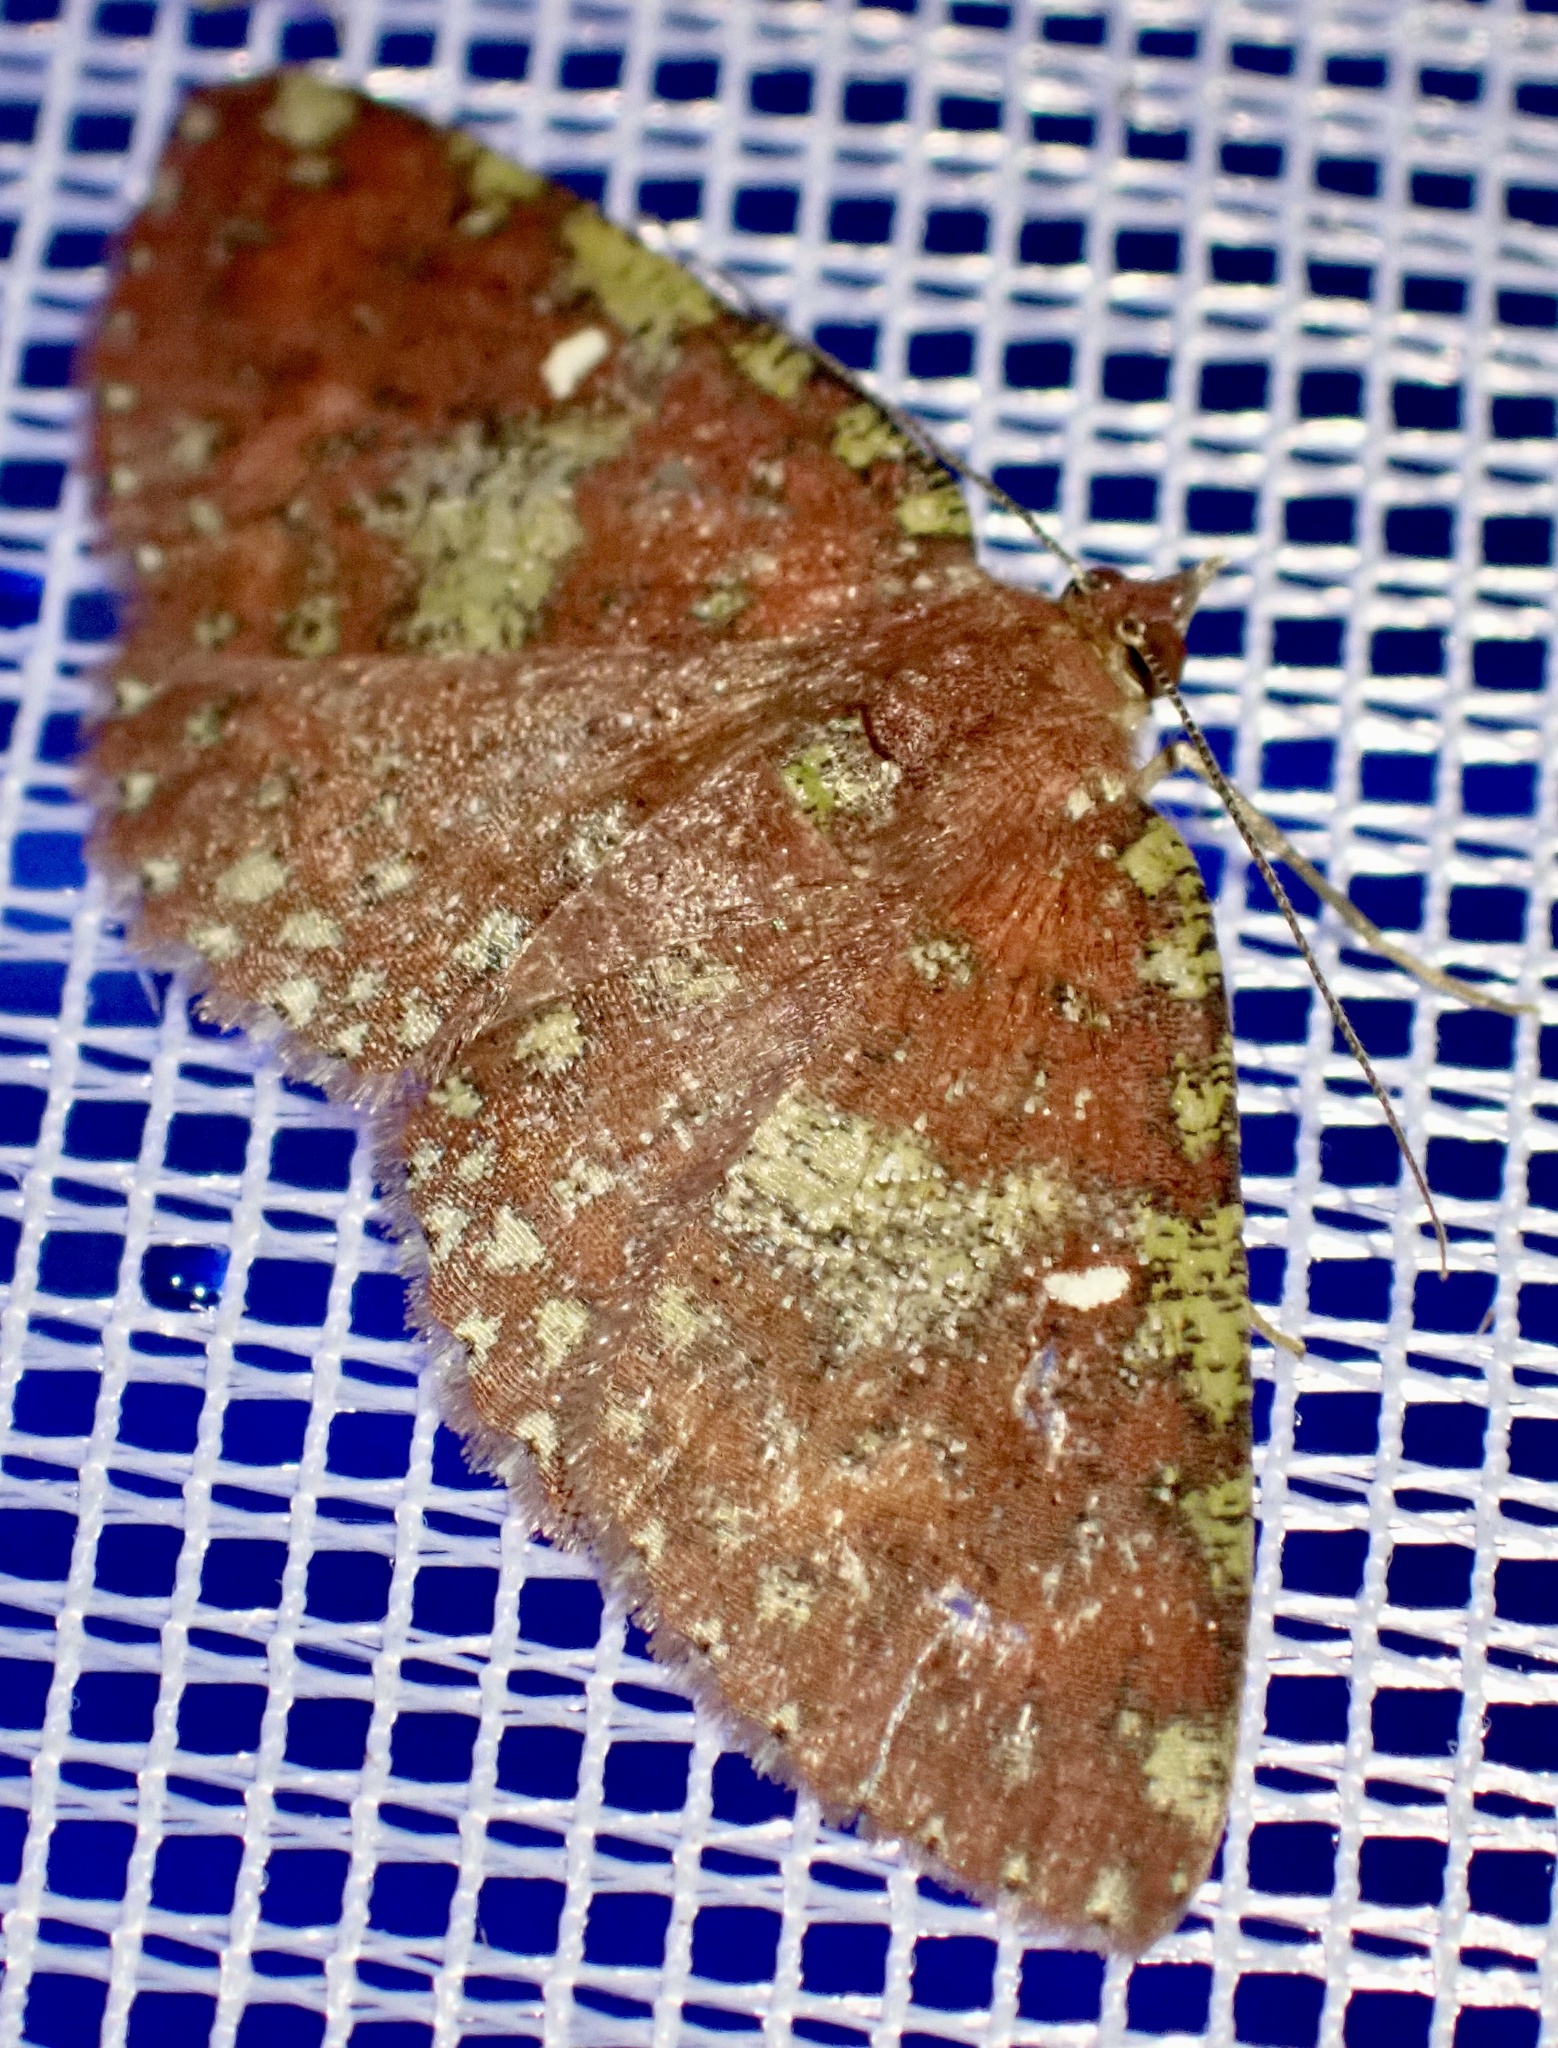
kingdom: Animalia
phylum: Arthropoda
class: Insecta
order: Lepidoptera
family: Geometridae
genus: Casbia
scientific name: Casbia rufoliva
